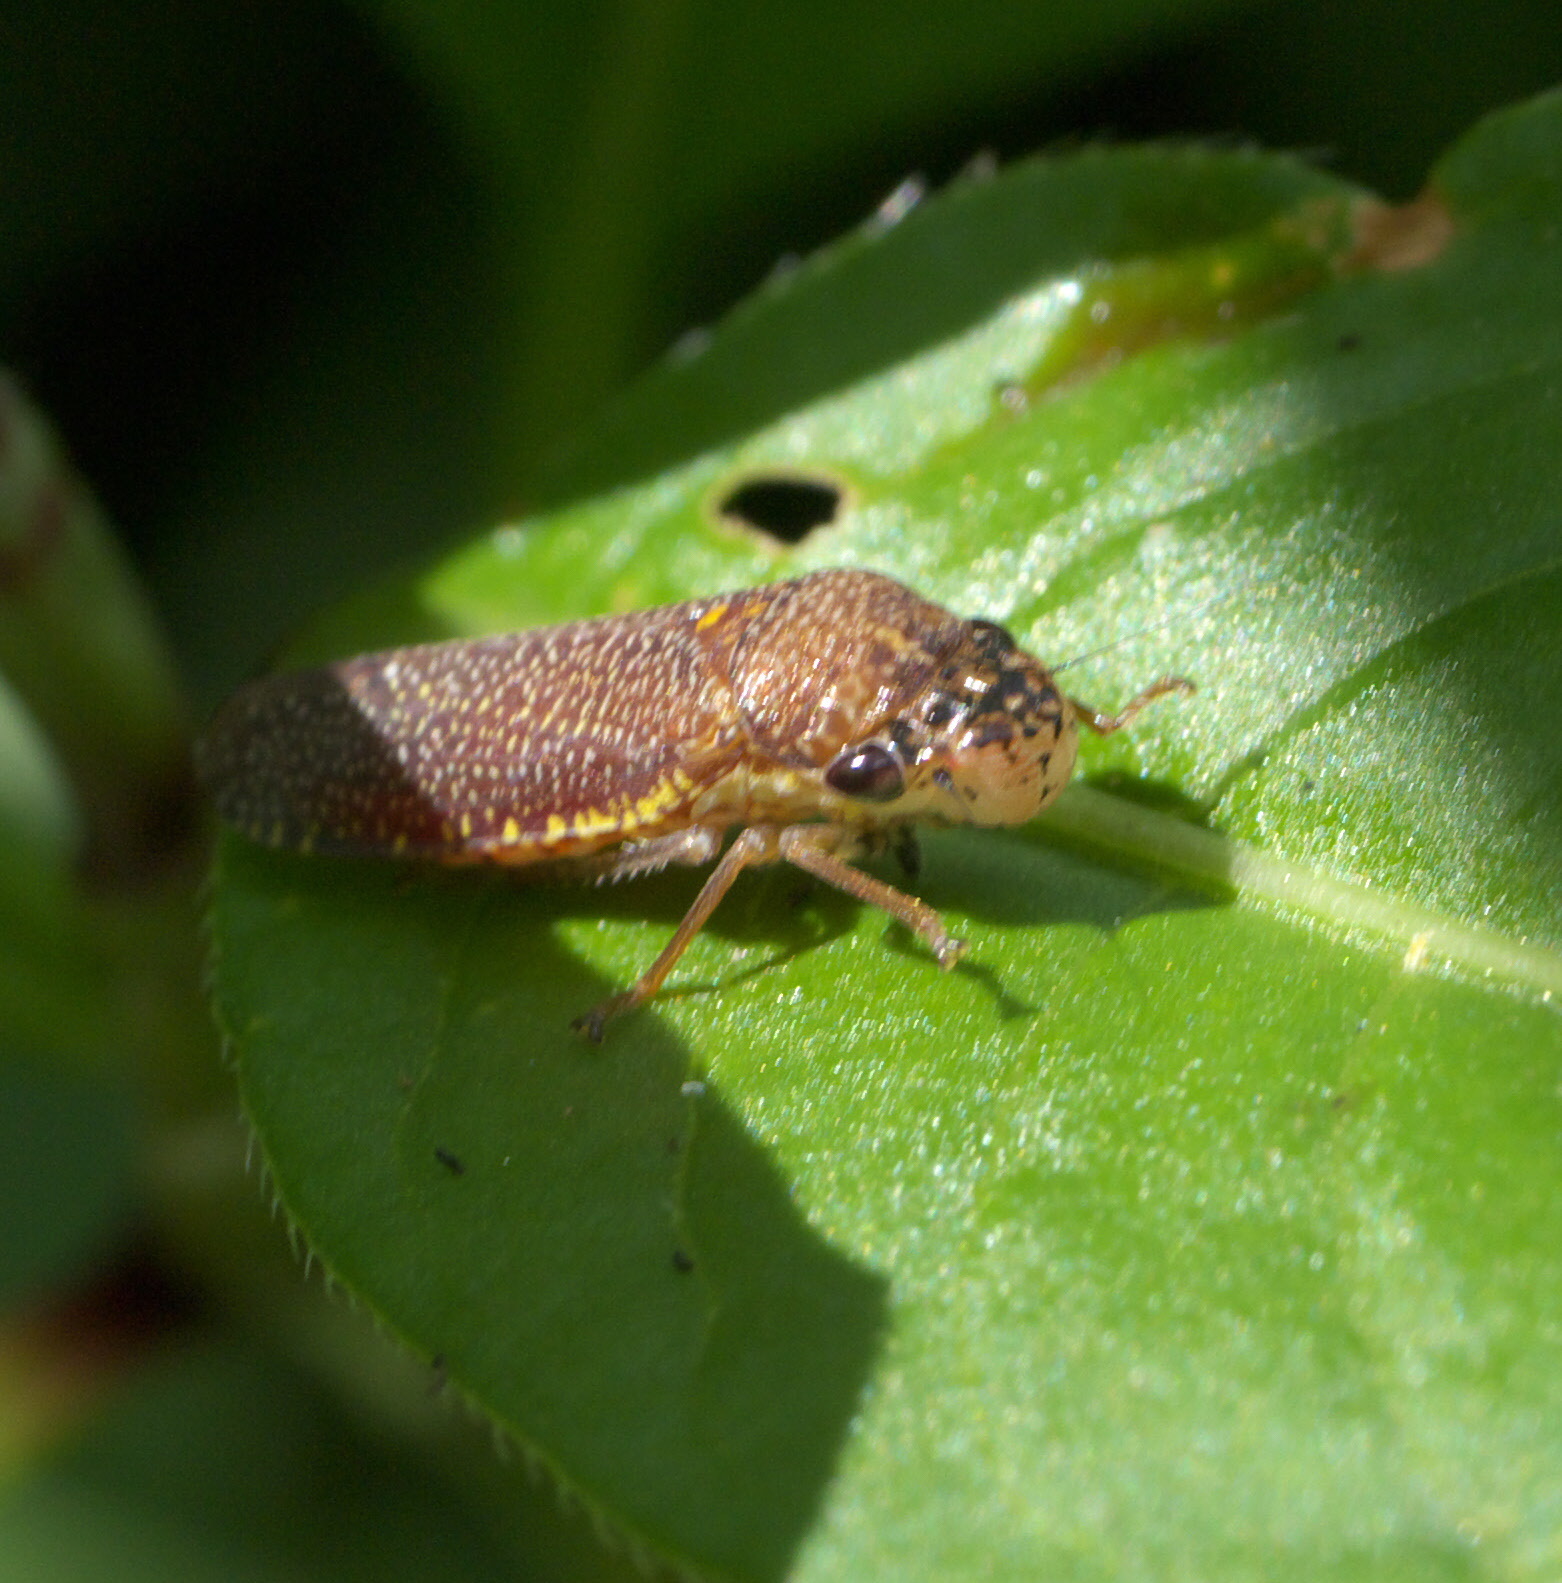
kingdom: Animalia
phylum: Arthropoda
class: Insecta
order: Hemiptera
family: Cicadellidae
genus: Paraulacizes
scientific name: Paraulacizes irrorata
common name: Speckled sharpshooter
